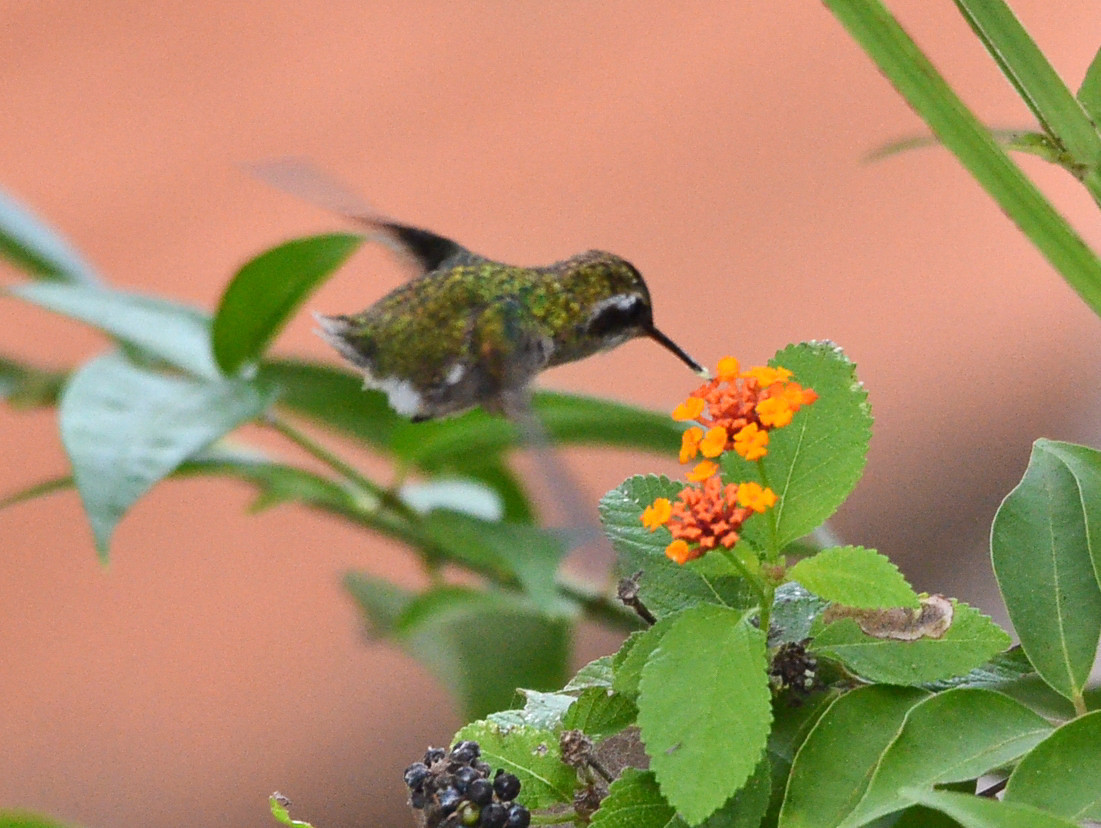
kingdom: Animalia
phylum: Chordata
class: Aves
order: Apodiformes
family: Trochilidae
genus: Cynanthus
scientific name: Cynanthus latirostris
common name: Broad-billed hummingbird
